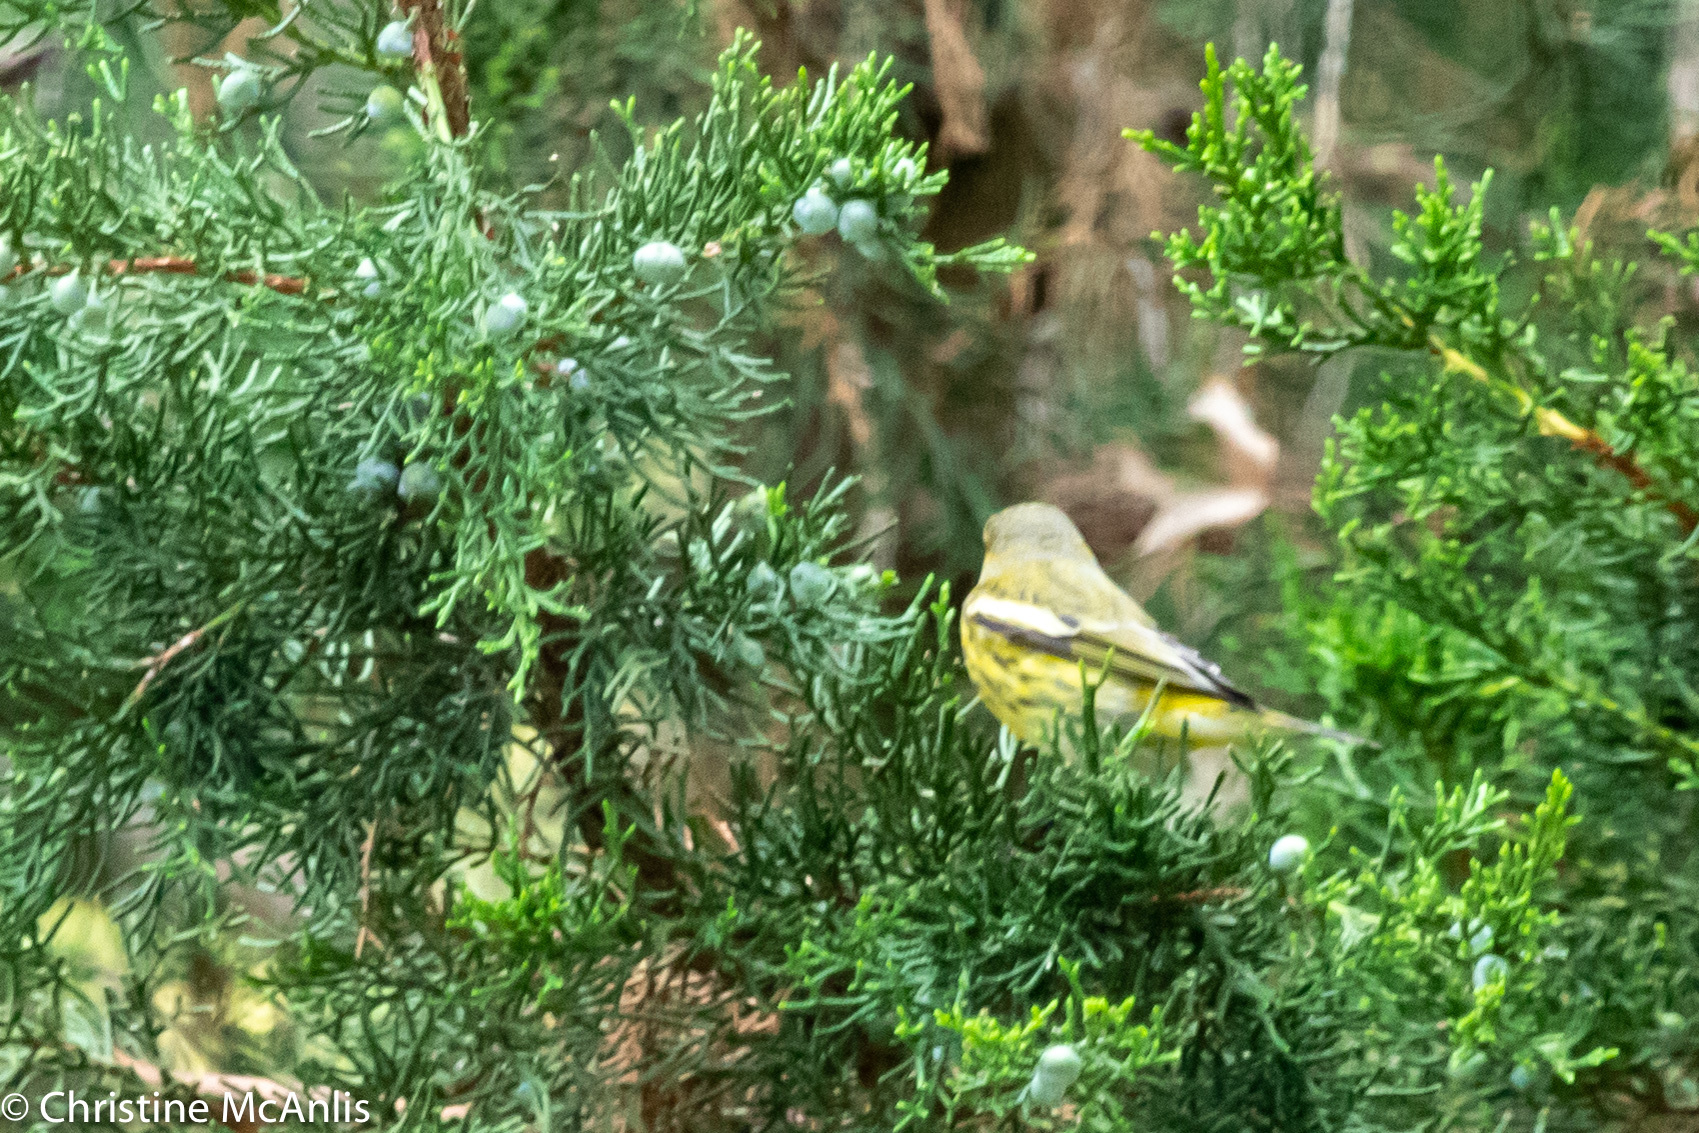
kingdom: Animalia
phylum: Chordata
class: Aves
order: Passeriformes
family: Parulidae
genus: Setophaga
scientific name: Setophaga tigrina
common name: Cape may warbler
